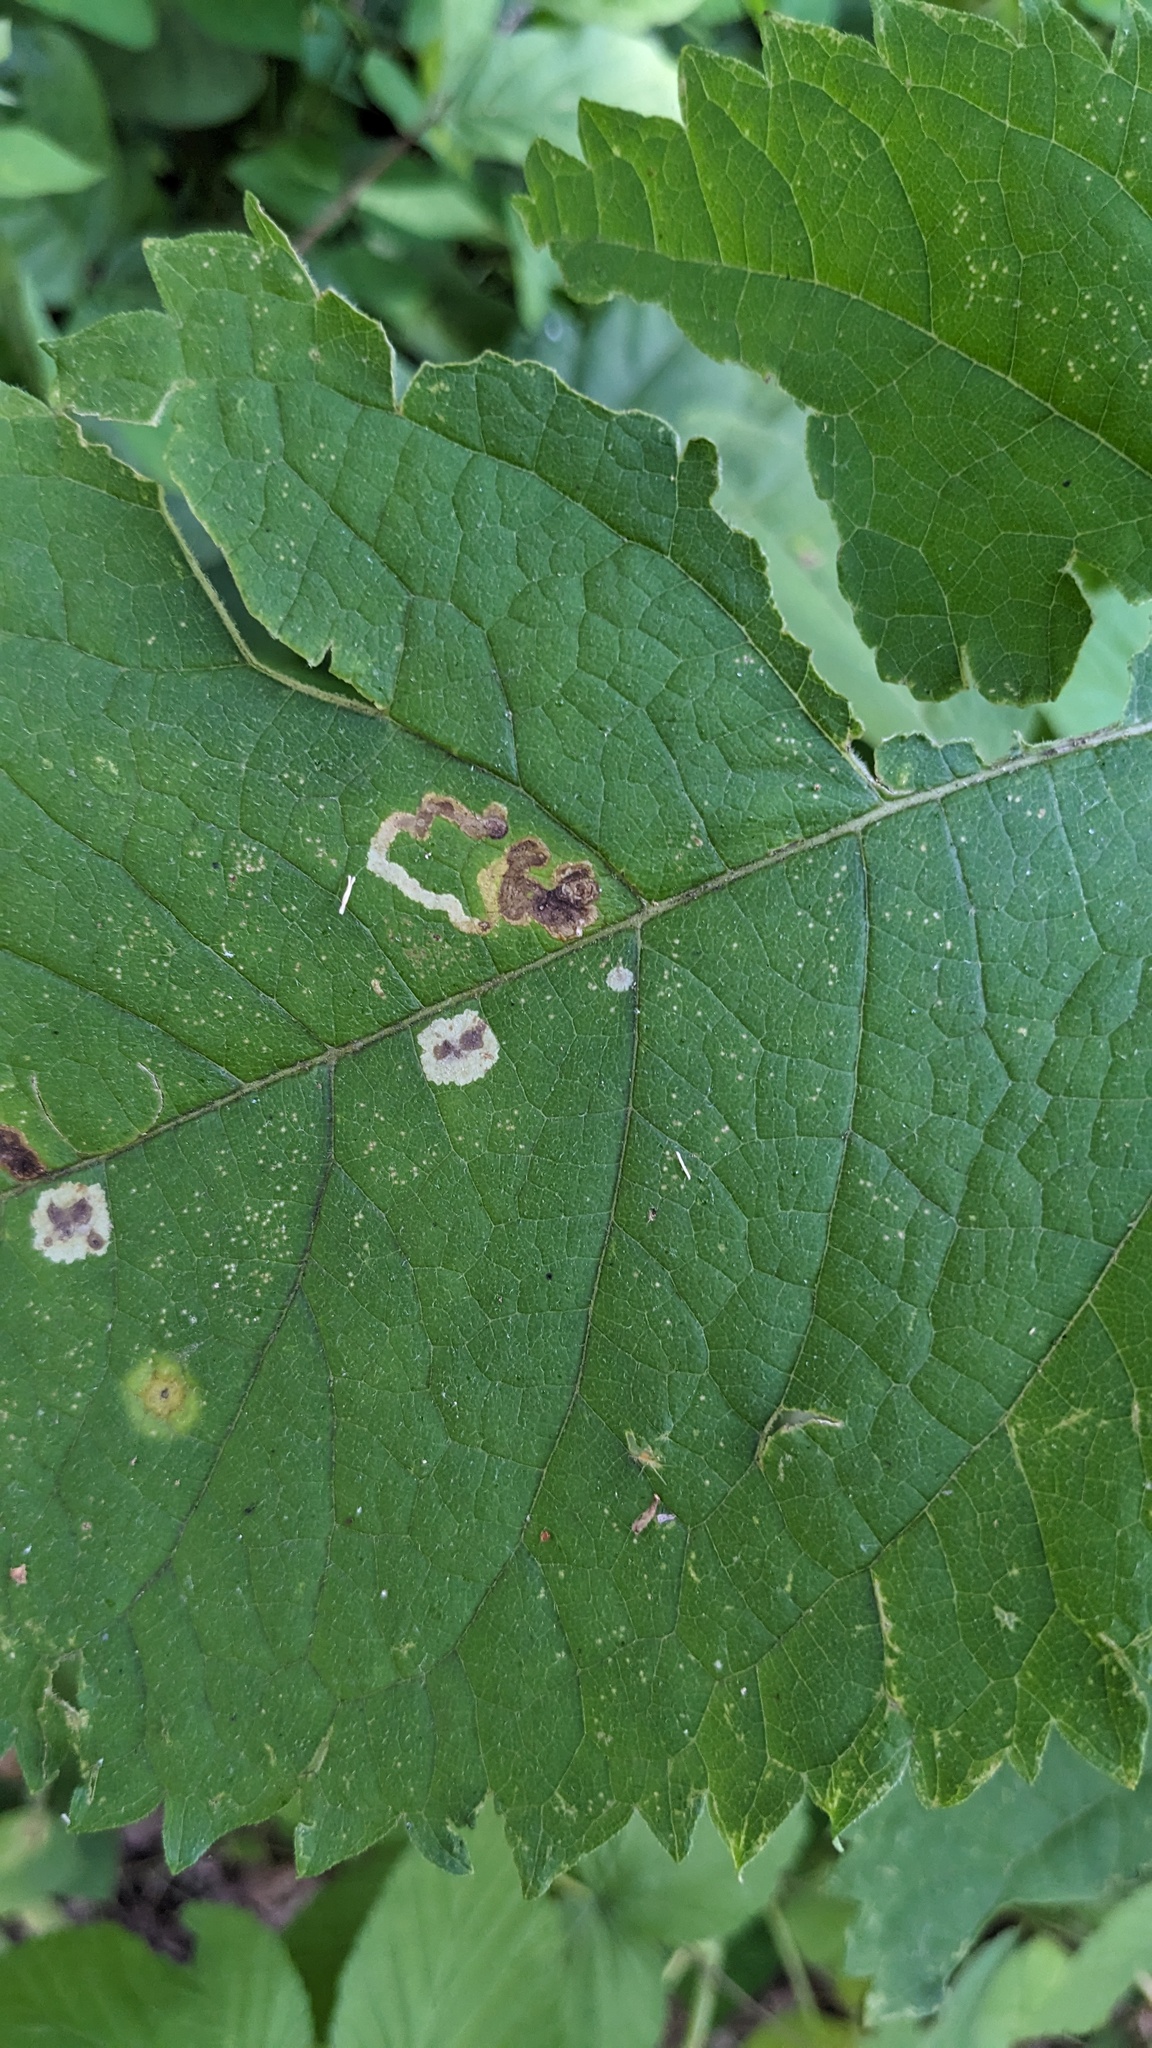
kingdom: Animalia
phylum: Arthropoda
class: Insecta
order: Diptera
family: Agromyzidae
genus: Calycomyza
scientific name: Calycomyza flavinotum
